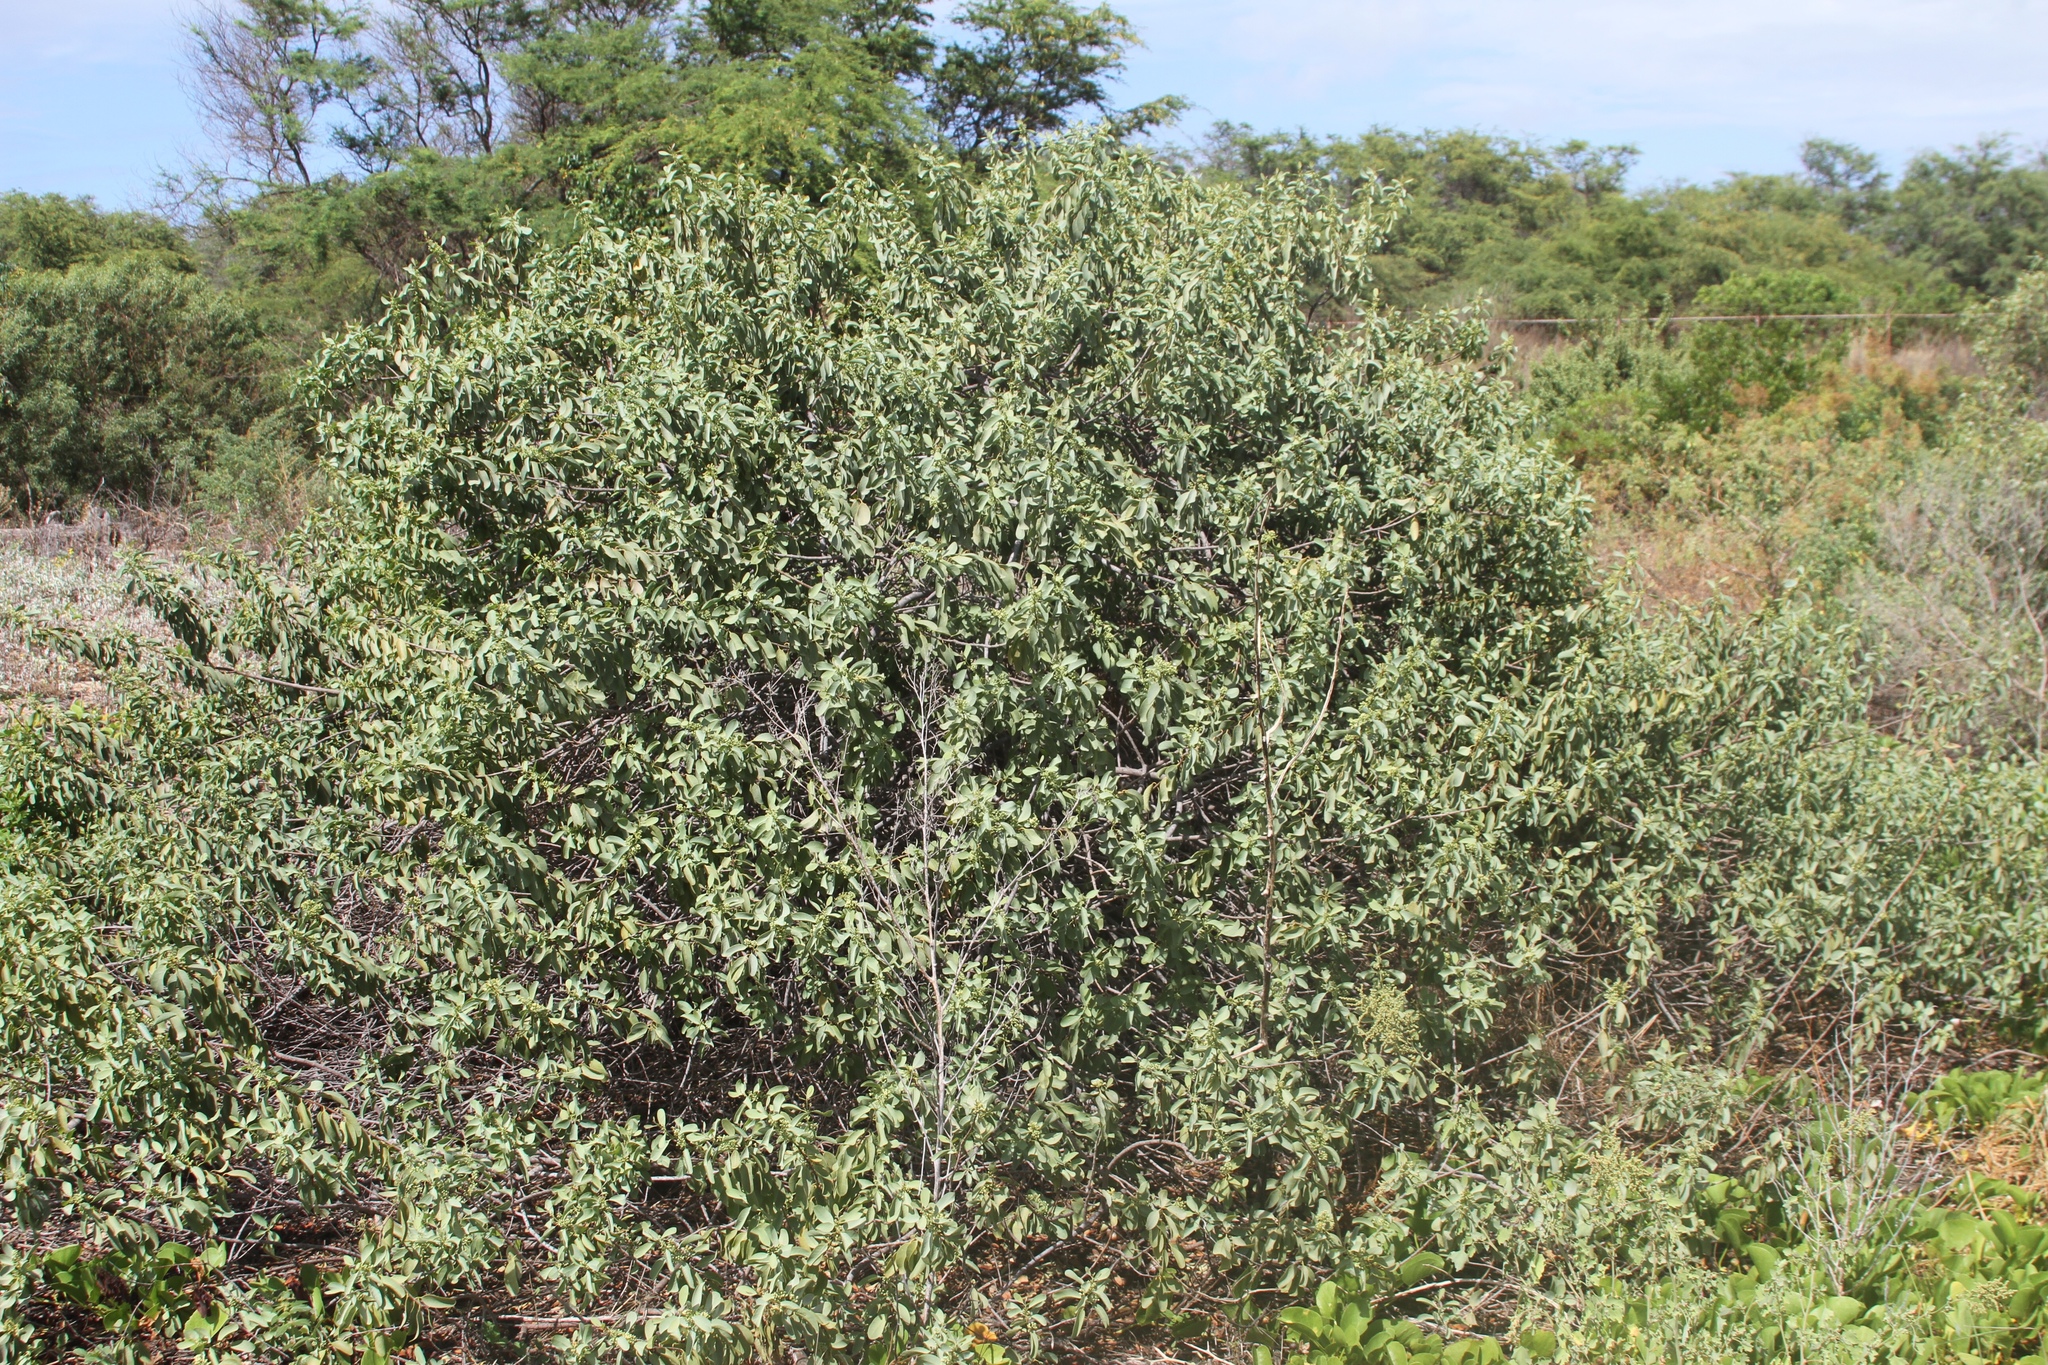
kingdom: Plantae
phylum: Tracheophyta
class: Magnoliopsida
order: Santalales
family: Santalaceae
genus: Santalum
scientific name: Santalum ellipticum
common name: Coast sandalwood
